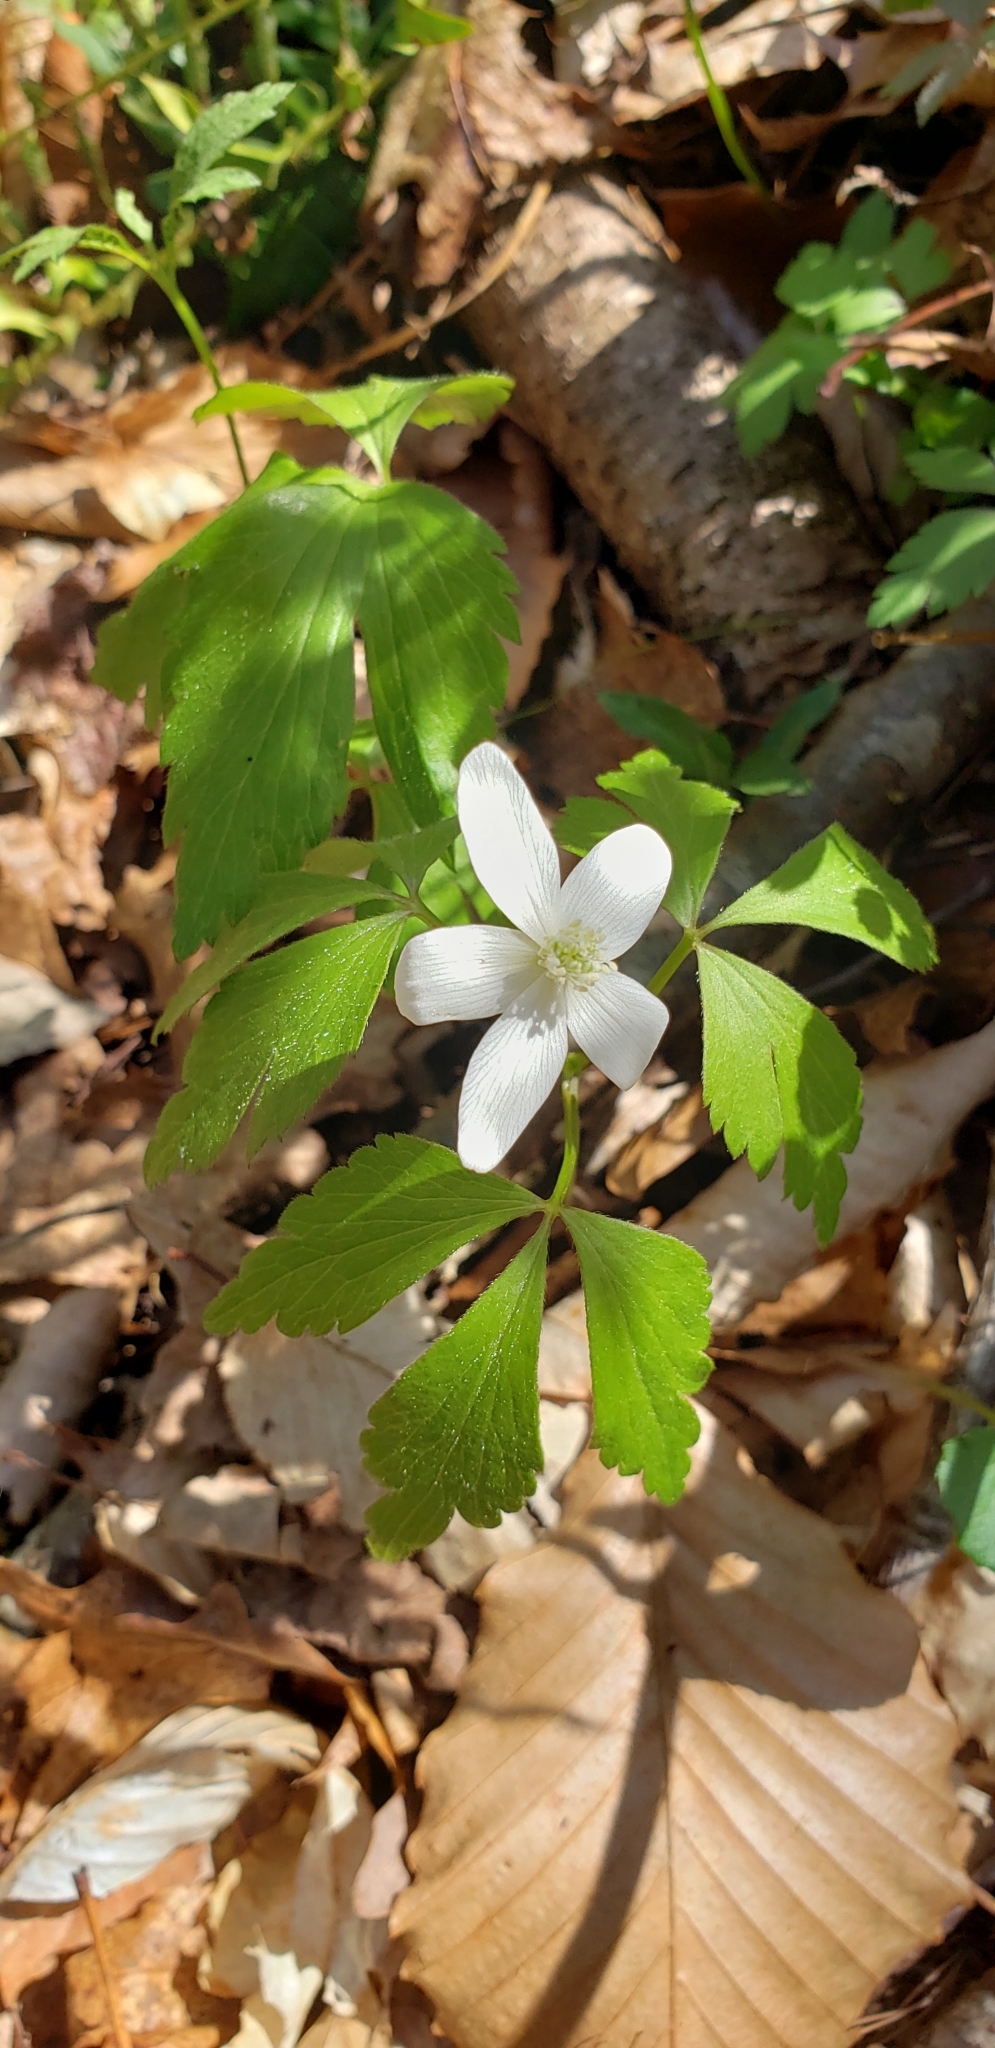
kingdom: Plantae
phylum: Tracheophyta
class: Magnoliopsida
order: Ranunculales
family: Ranunculaceae
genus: Anemone
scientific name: Anemone quinquefolia
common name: Wood anemone
